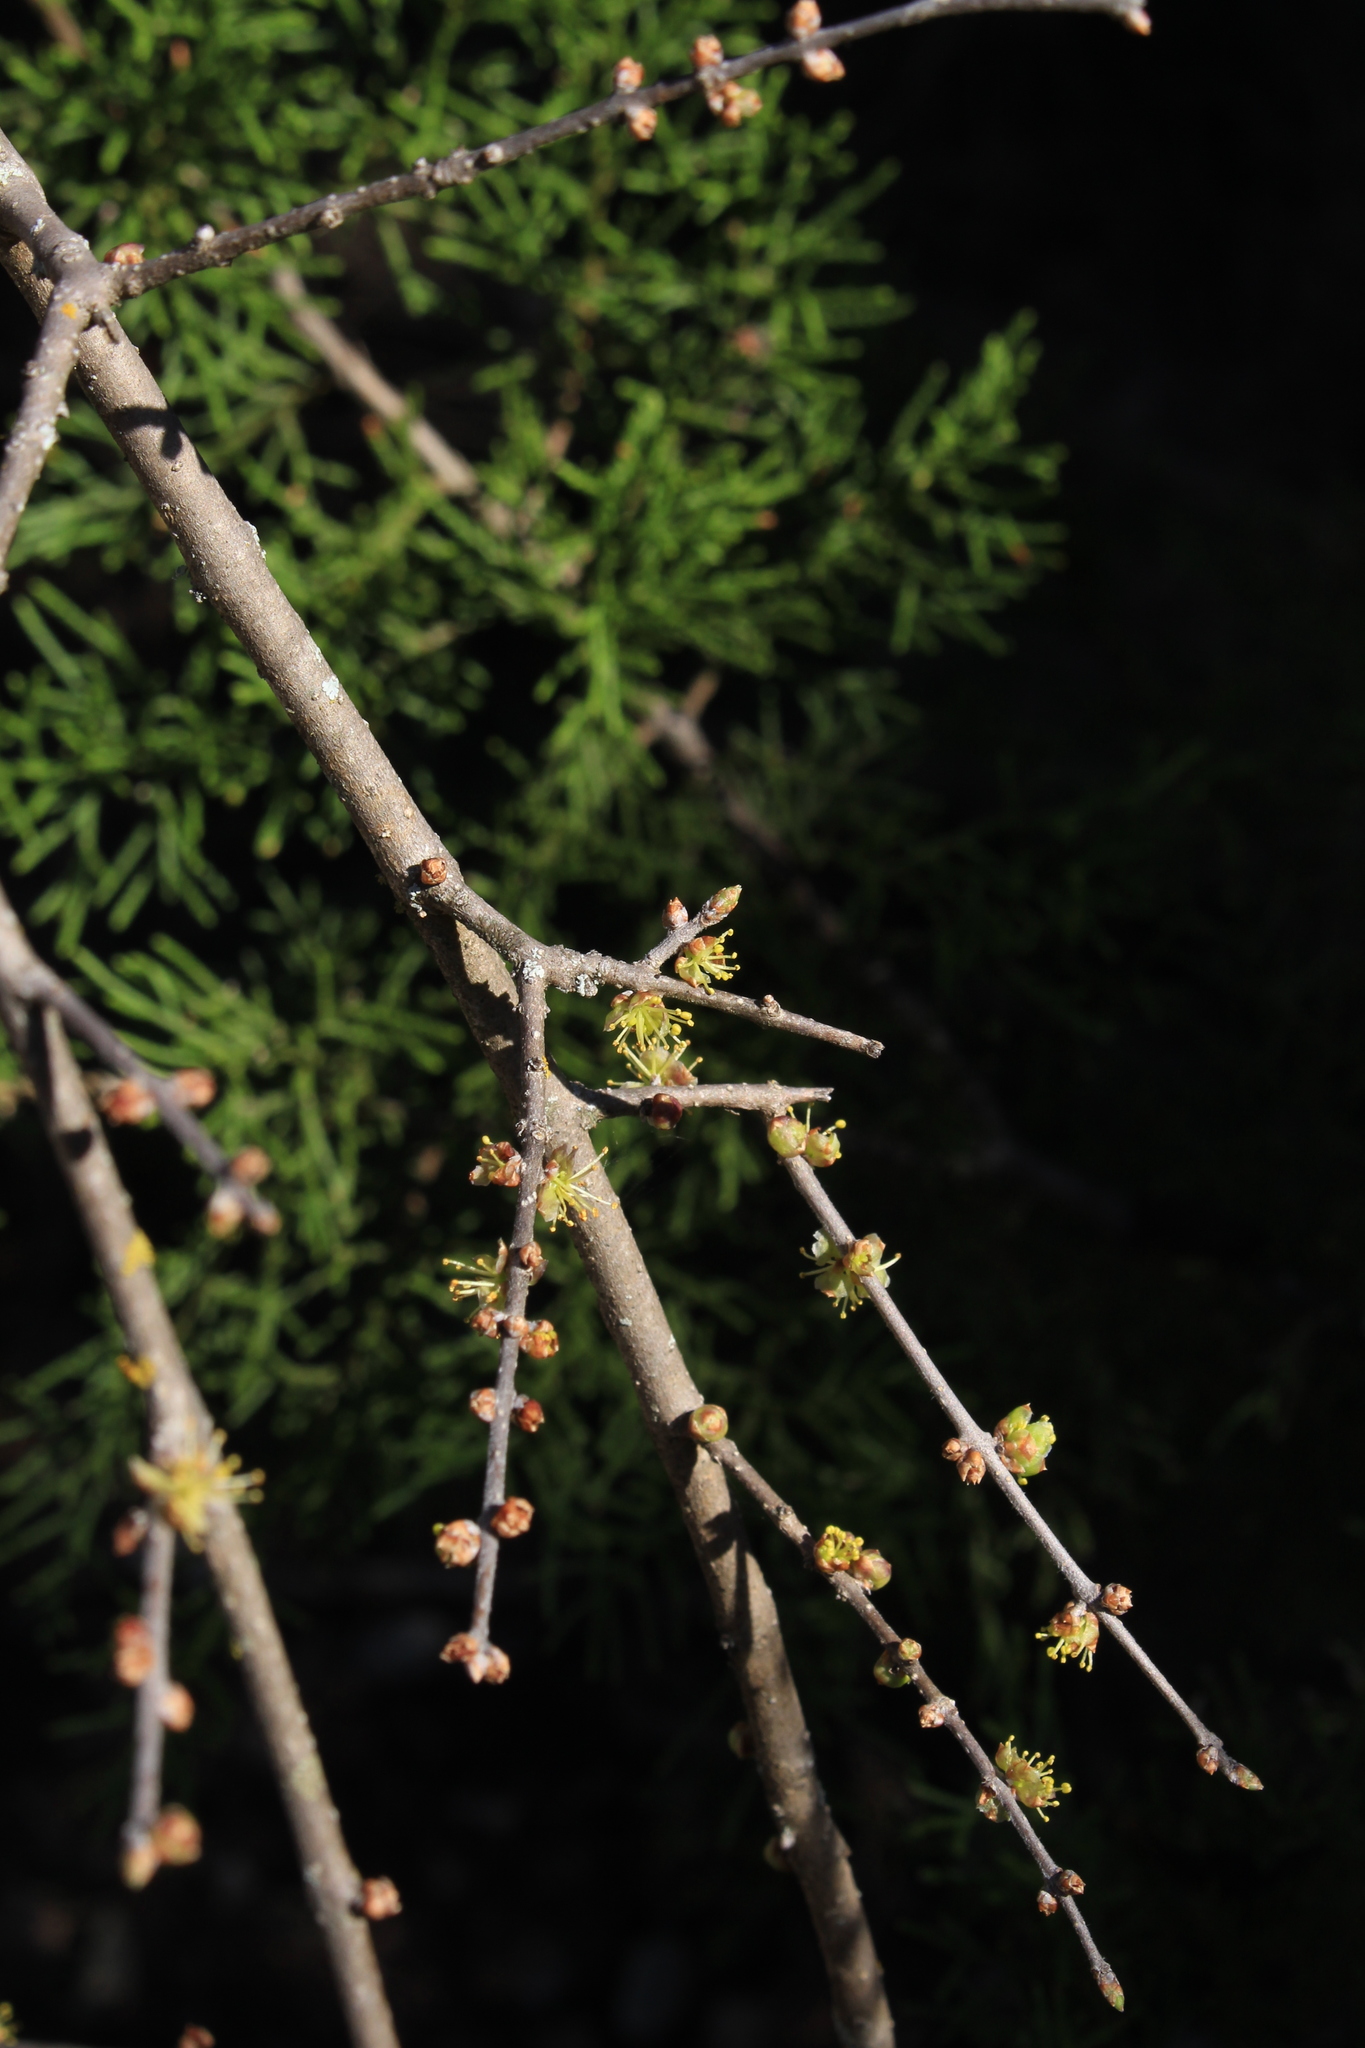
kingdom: Plantae
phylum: Tracheophyta
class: Magnoliopsida
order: Lamiales
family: Oleaceae
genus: Forestiera
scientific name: Forestiera pubescens
